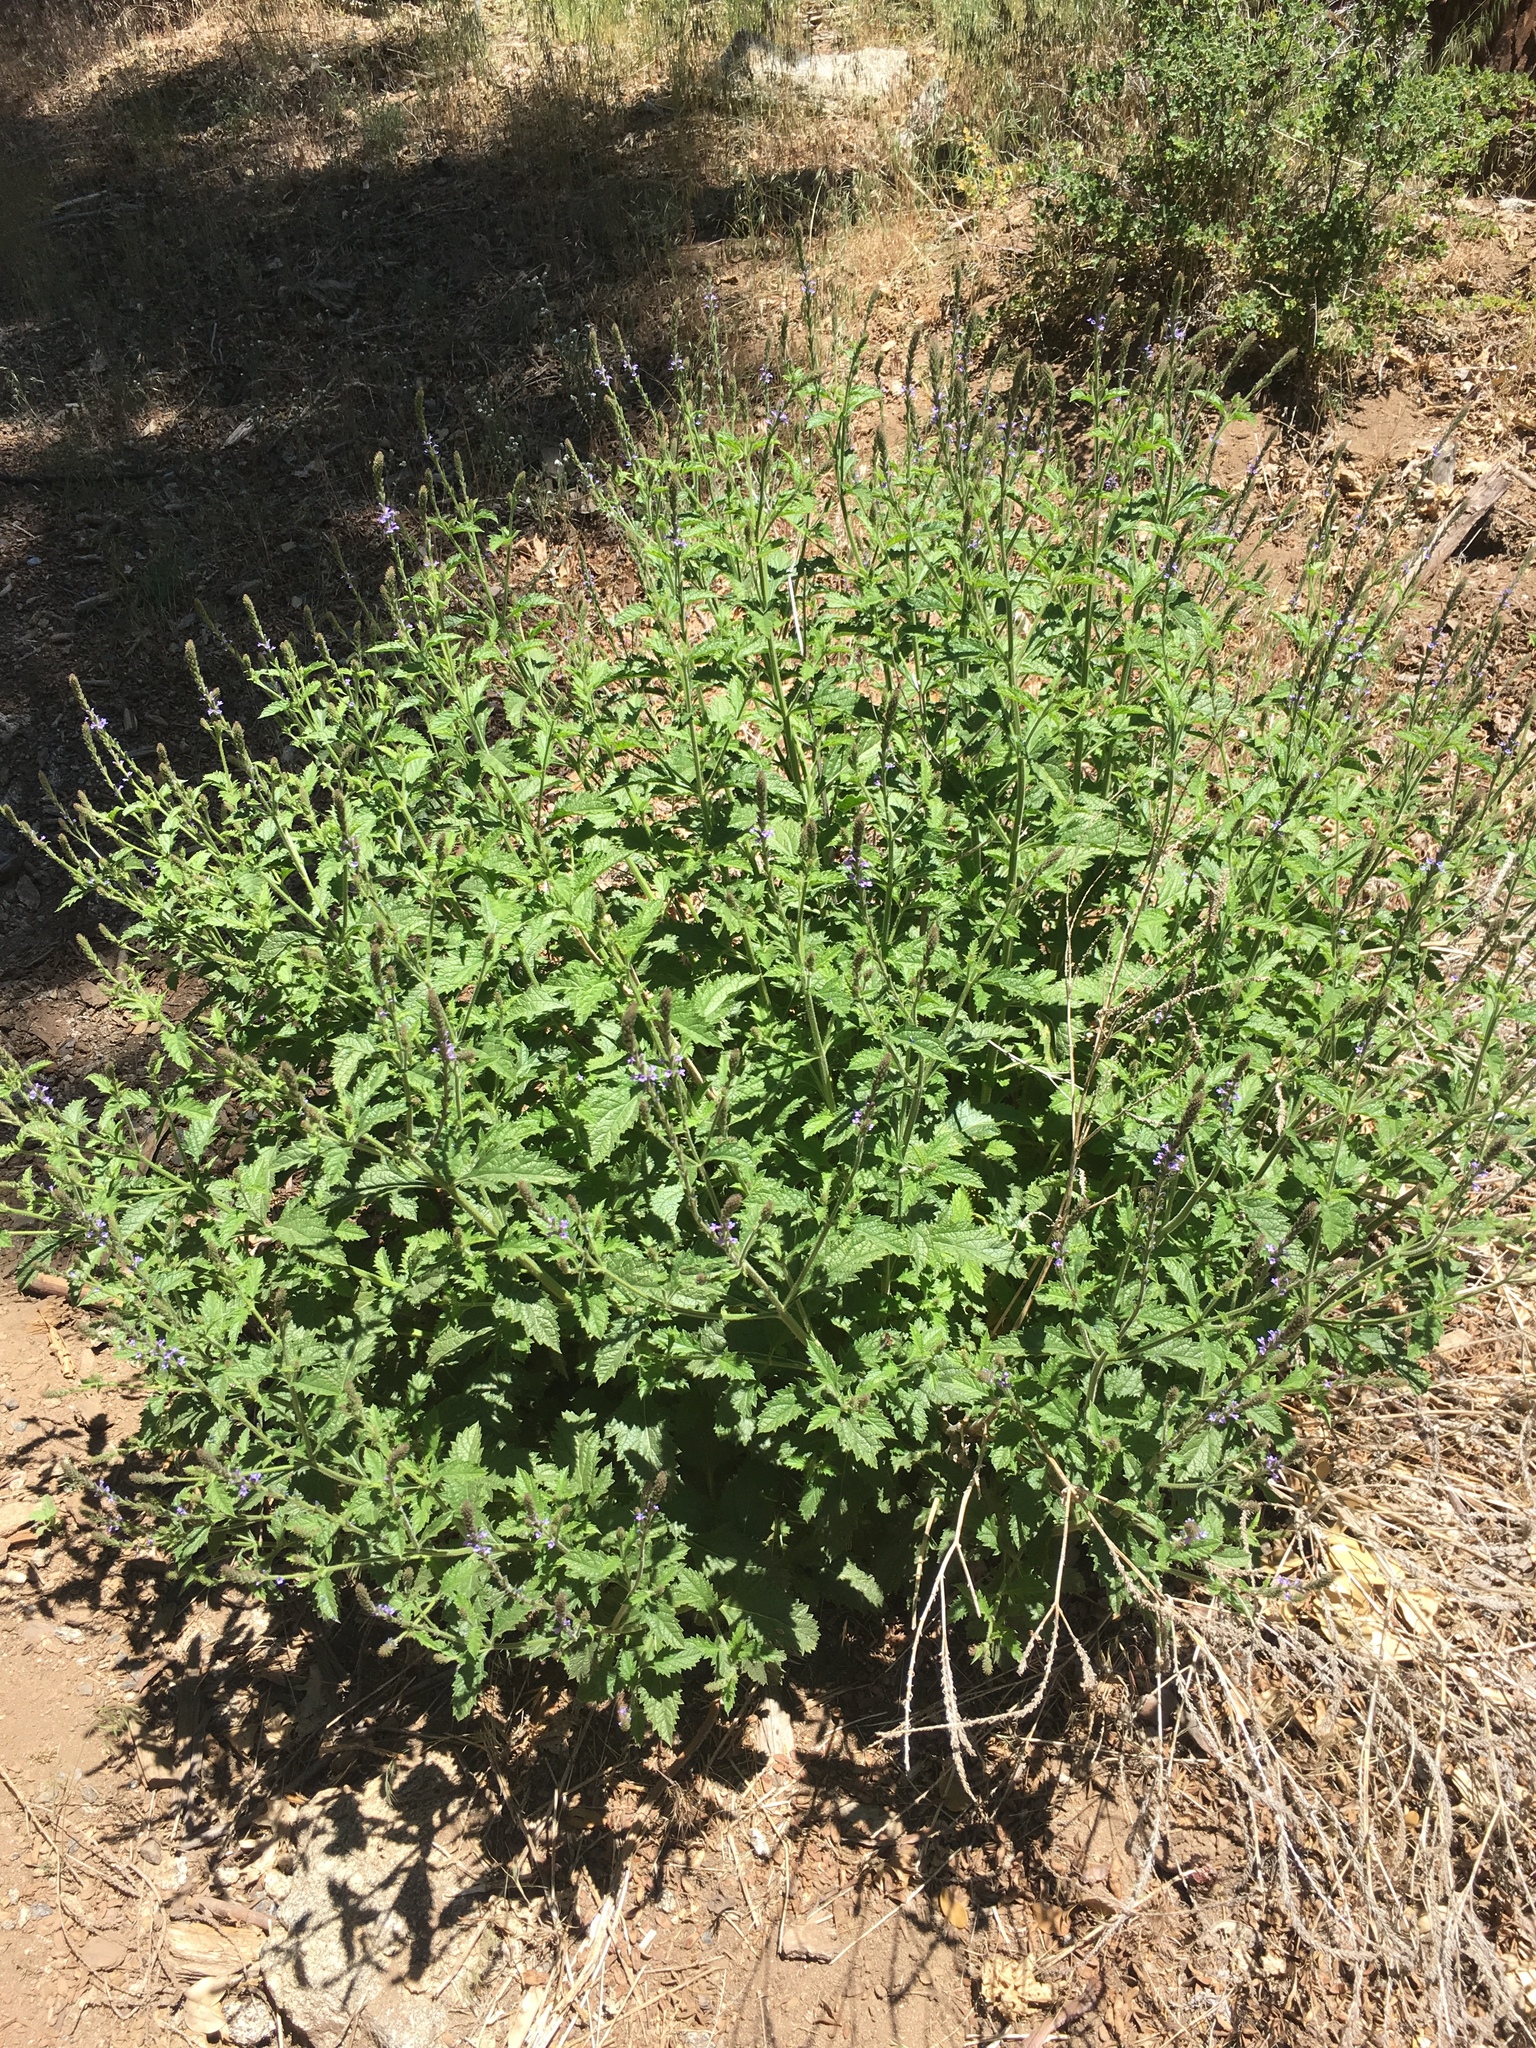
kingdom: Plantae
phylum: Tracheophyta
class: Magnoliopsida
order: Lamiales
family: Verbenaceae
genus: Verbena
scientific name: Verbena lasiostachys
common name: Vervain
